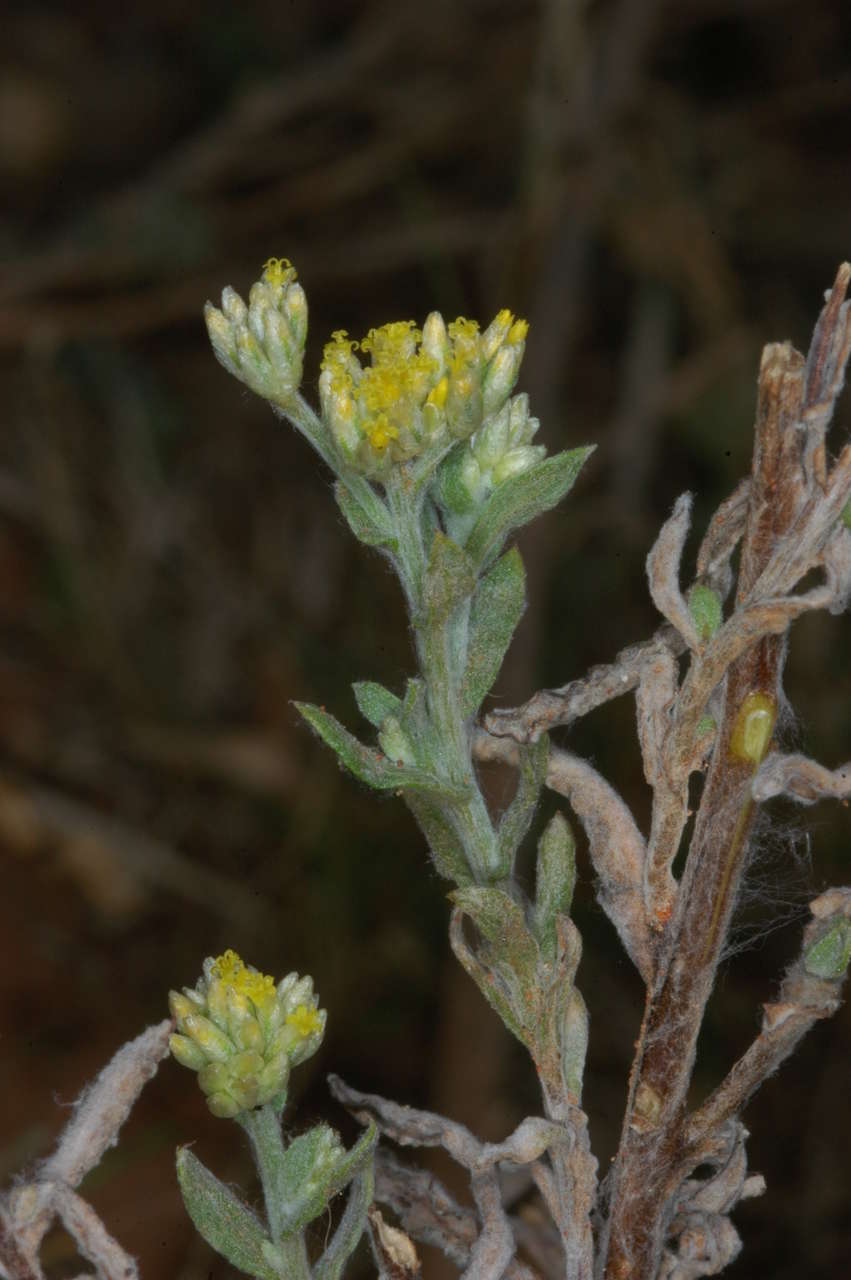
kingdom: Plantae
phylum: Tracheophyta
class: Magnoliopsida
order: Asterales
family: Asteraceae
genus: Rhodanthe
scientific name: Rhodanthe moschata
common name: Musk sunray
